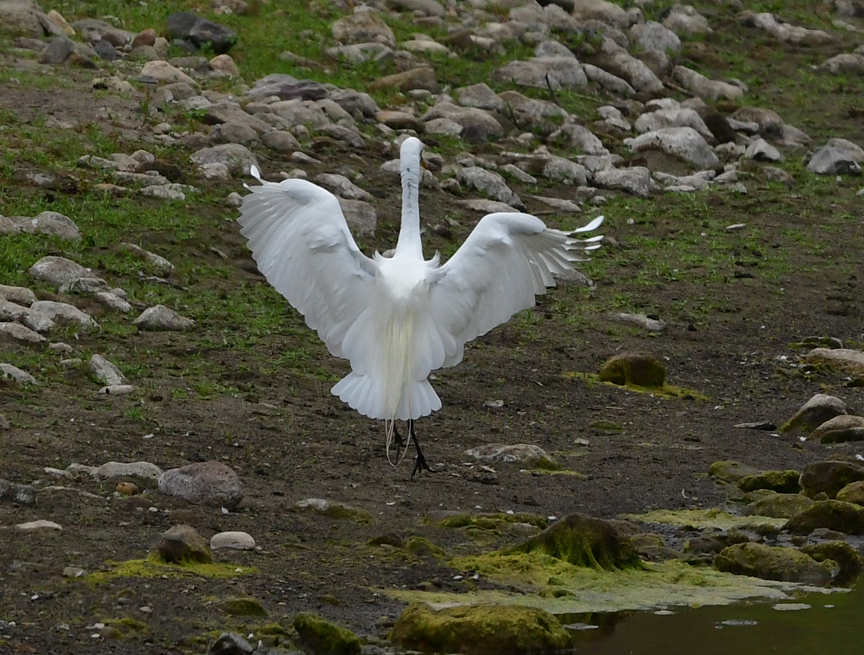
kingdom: Animalia
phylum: Chordata
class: Aves
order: Pelecaniformes
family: Ardeidae
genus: Ardea
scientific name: Ardea alba
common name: Great egret
